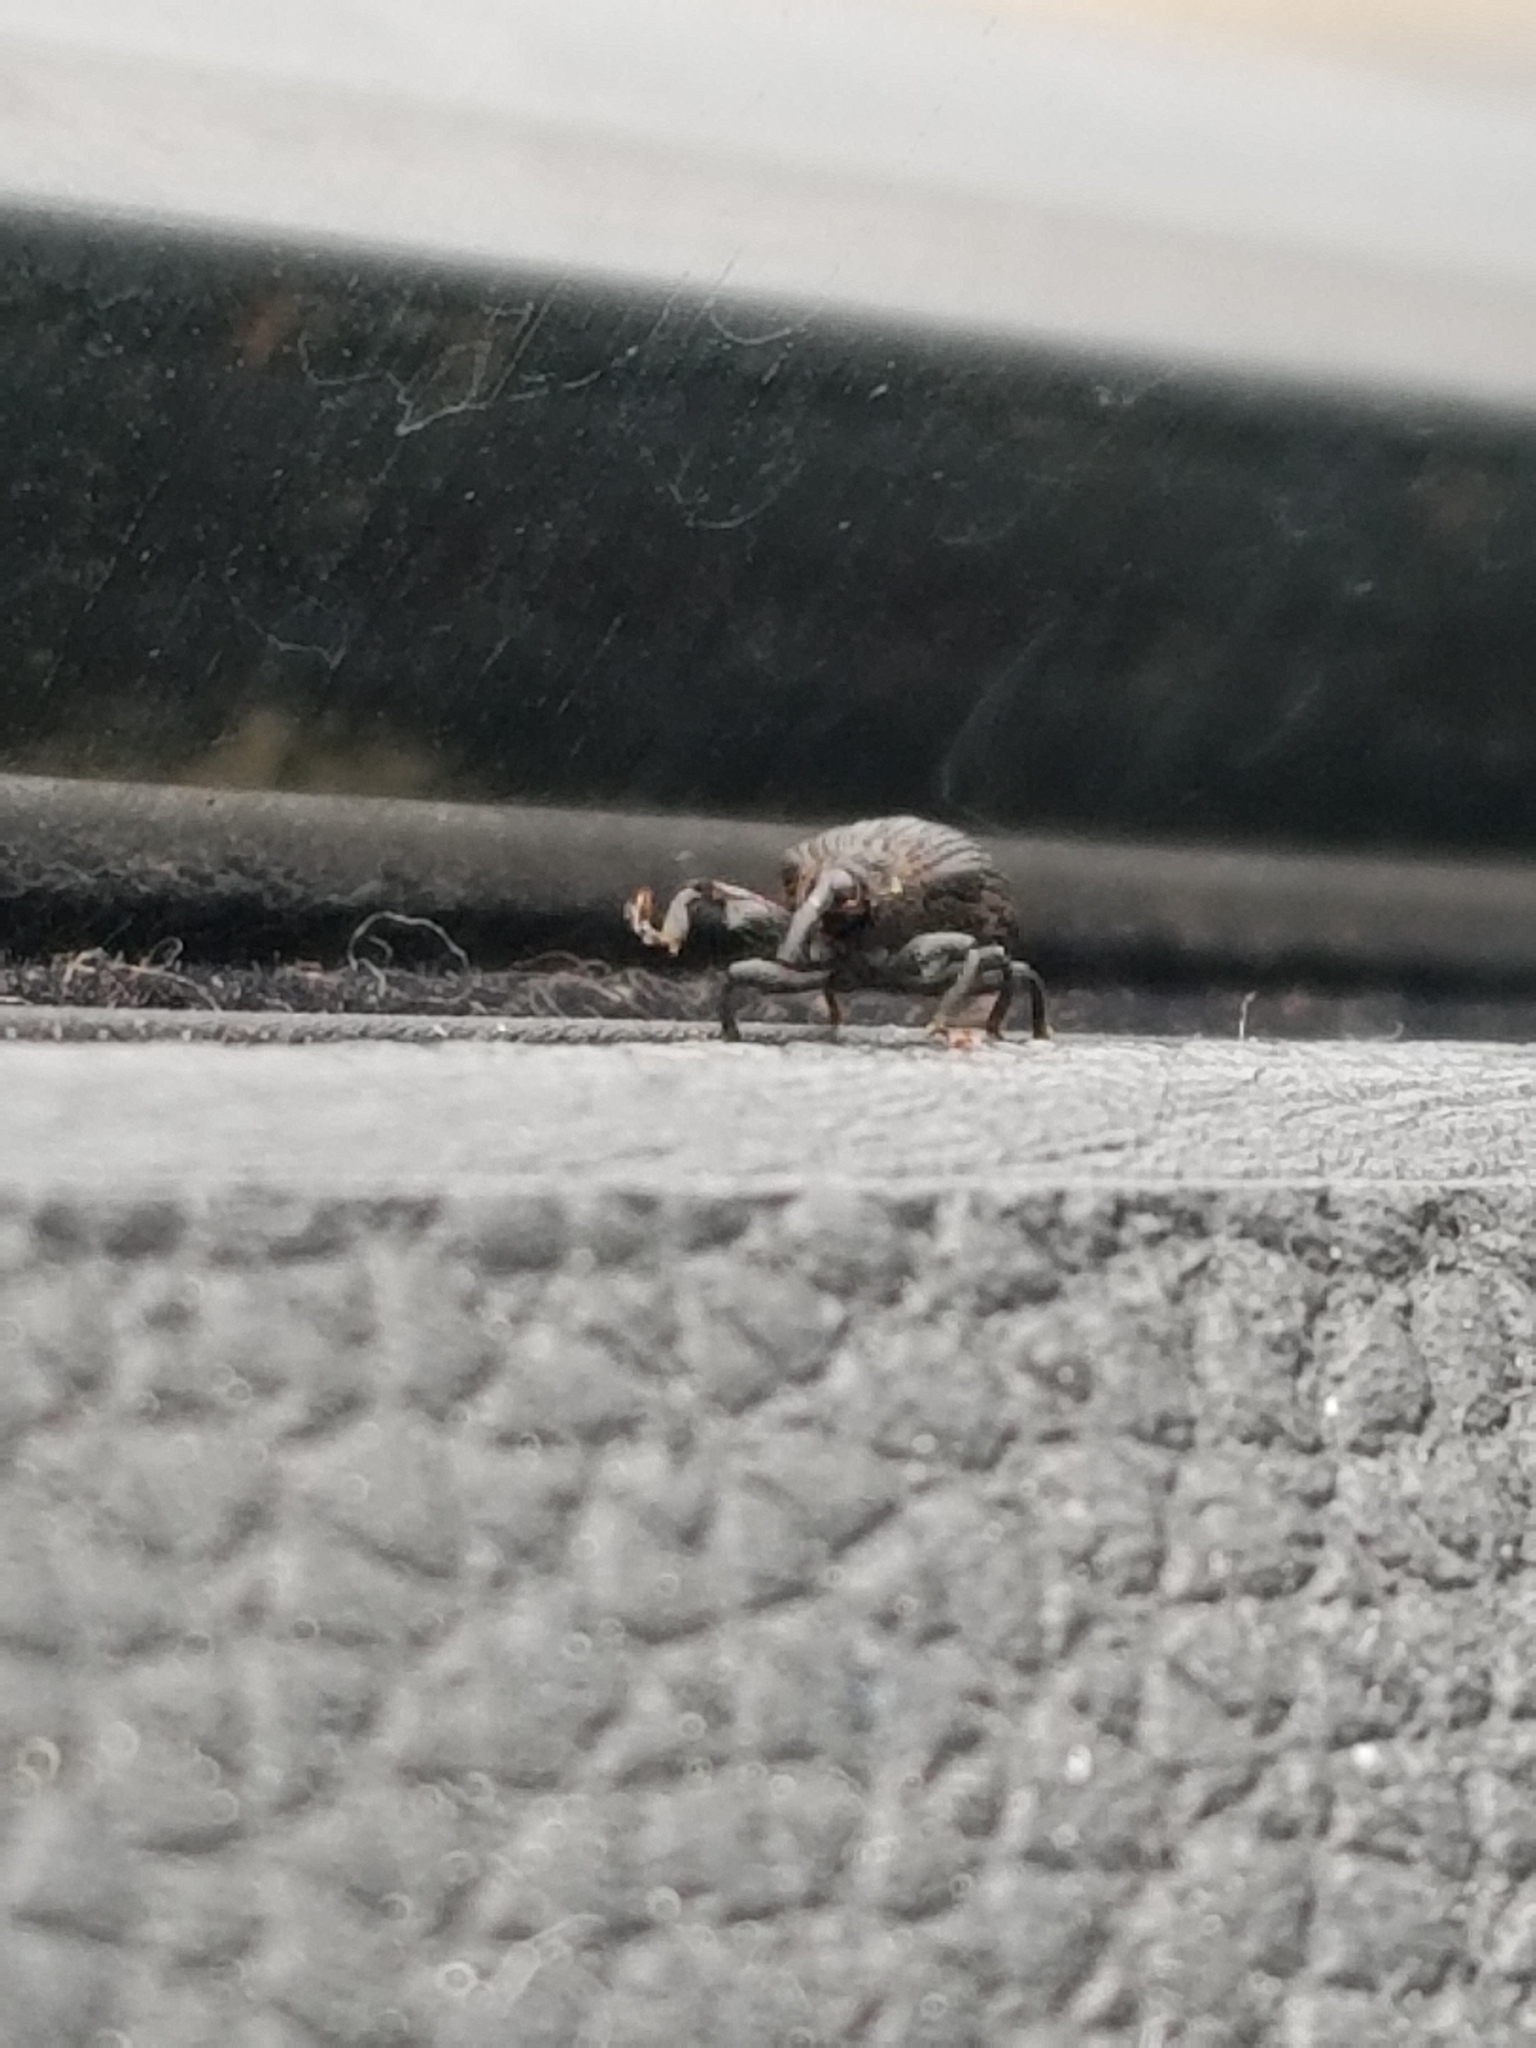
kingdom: Animalia
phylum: Arthropoda
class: Insecta
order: Coleoptera
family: Curculionidae
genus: Odontopus
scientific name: Odontopus calceatus
